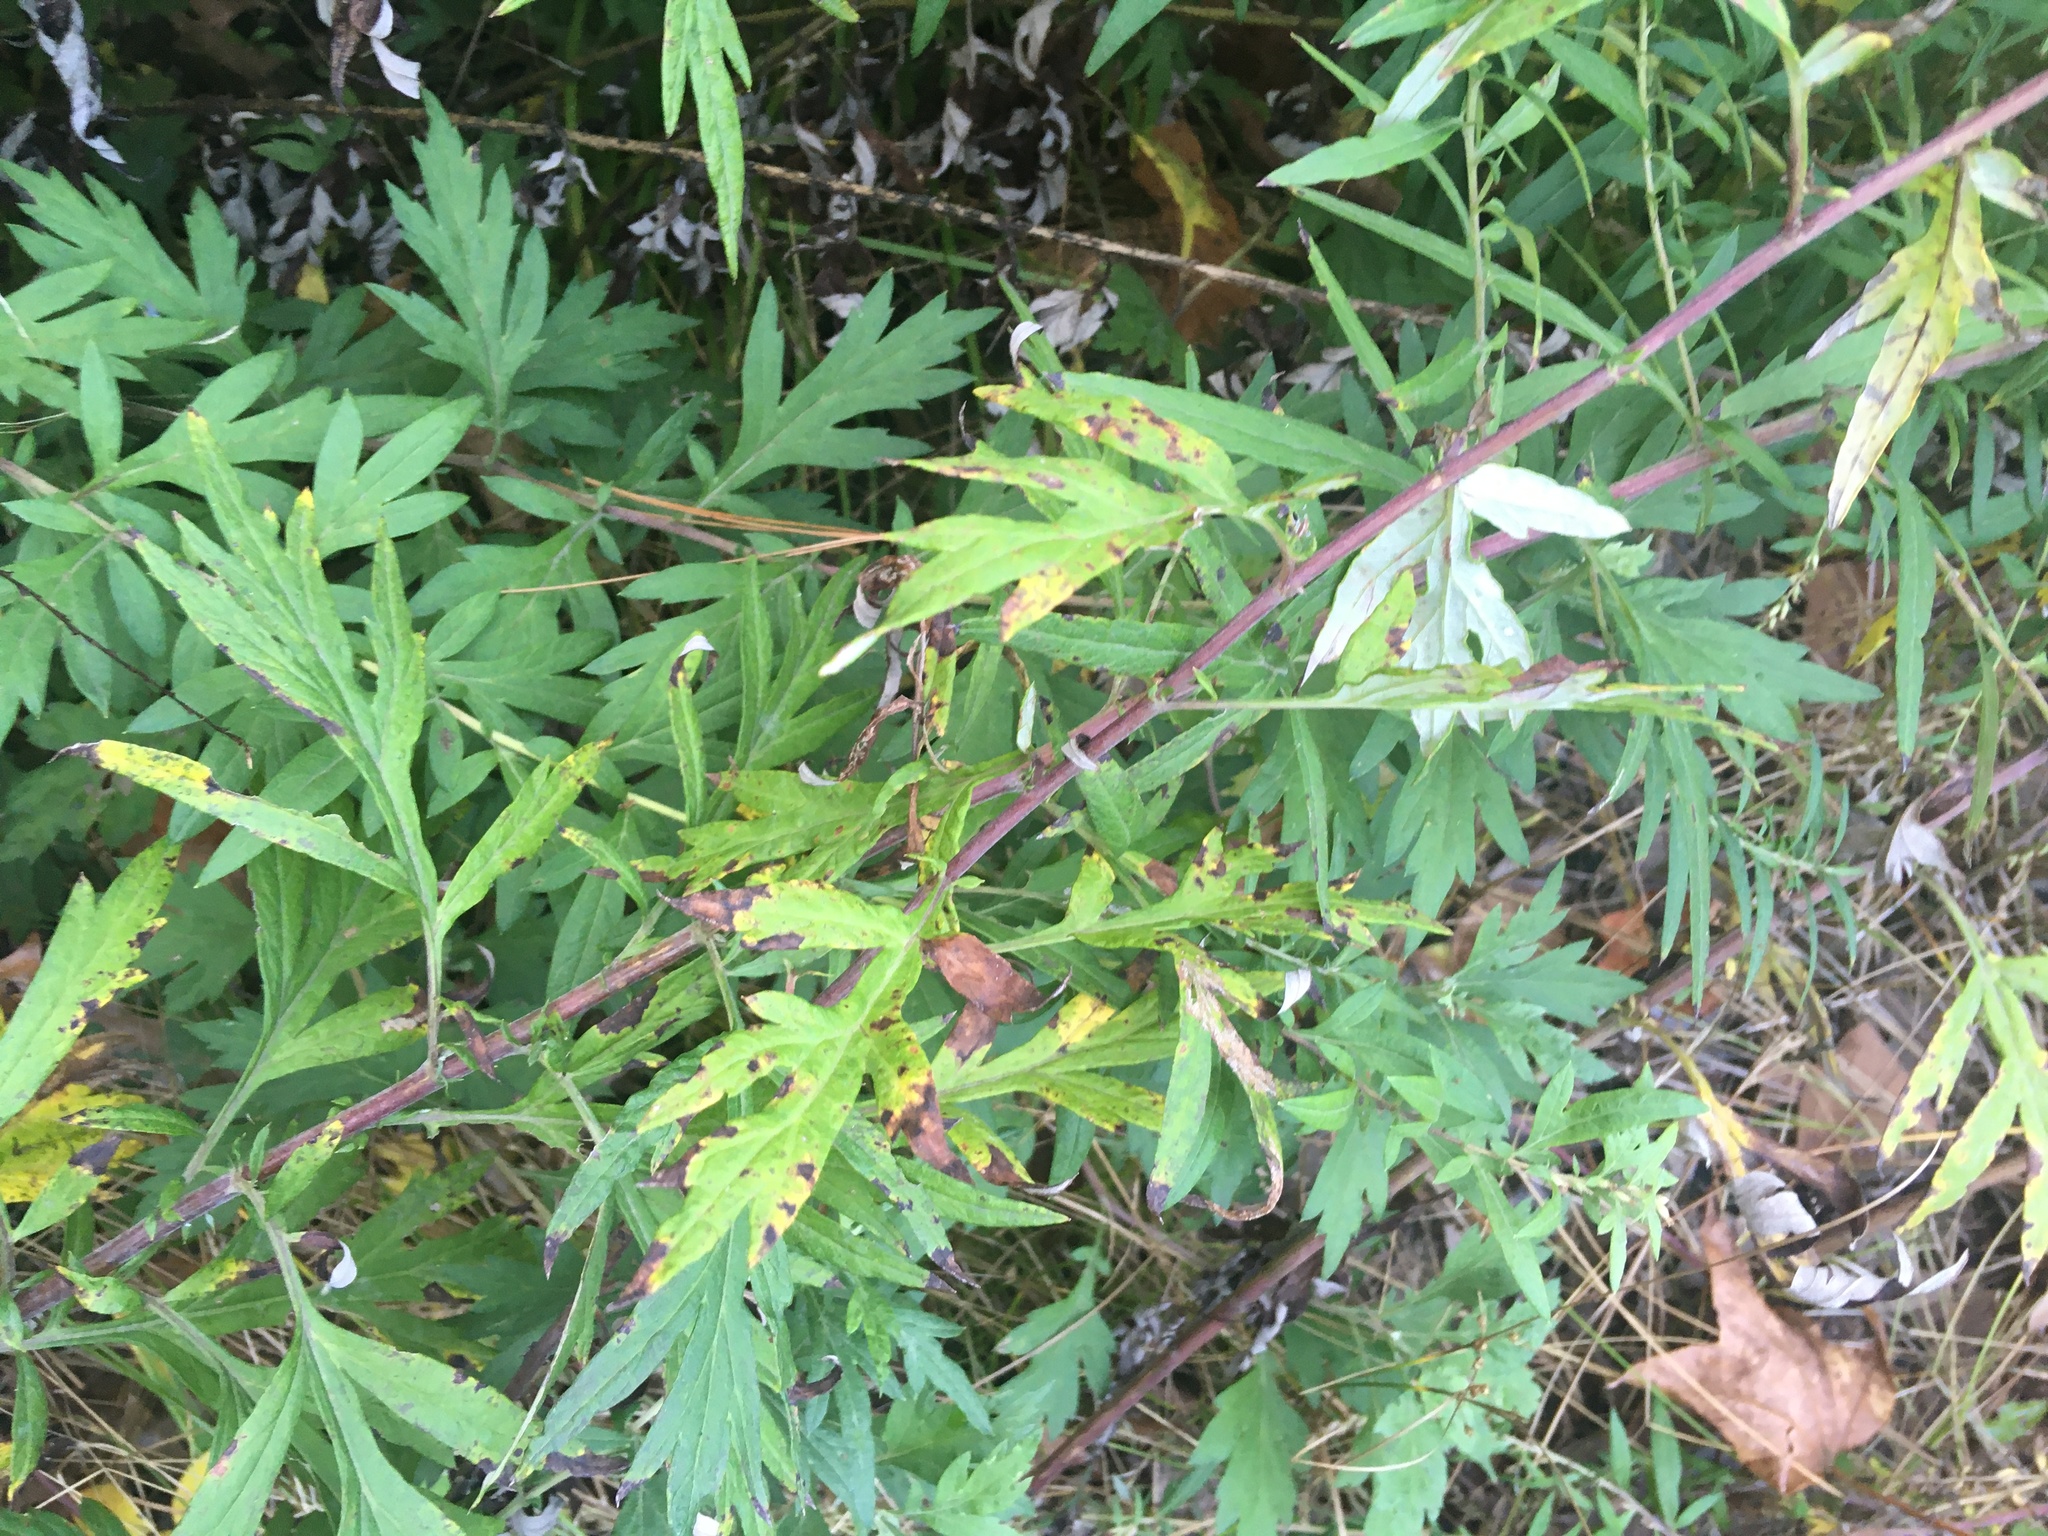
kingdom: Plantae
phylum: Tracheophyta
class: Magnoliopsida
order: Asterales
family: Asteraceae
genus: Artemisia
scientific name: Artemisia vulgaris
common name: Mugwort
